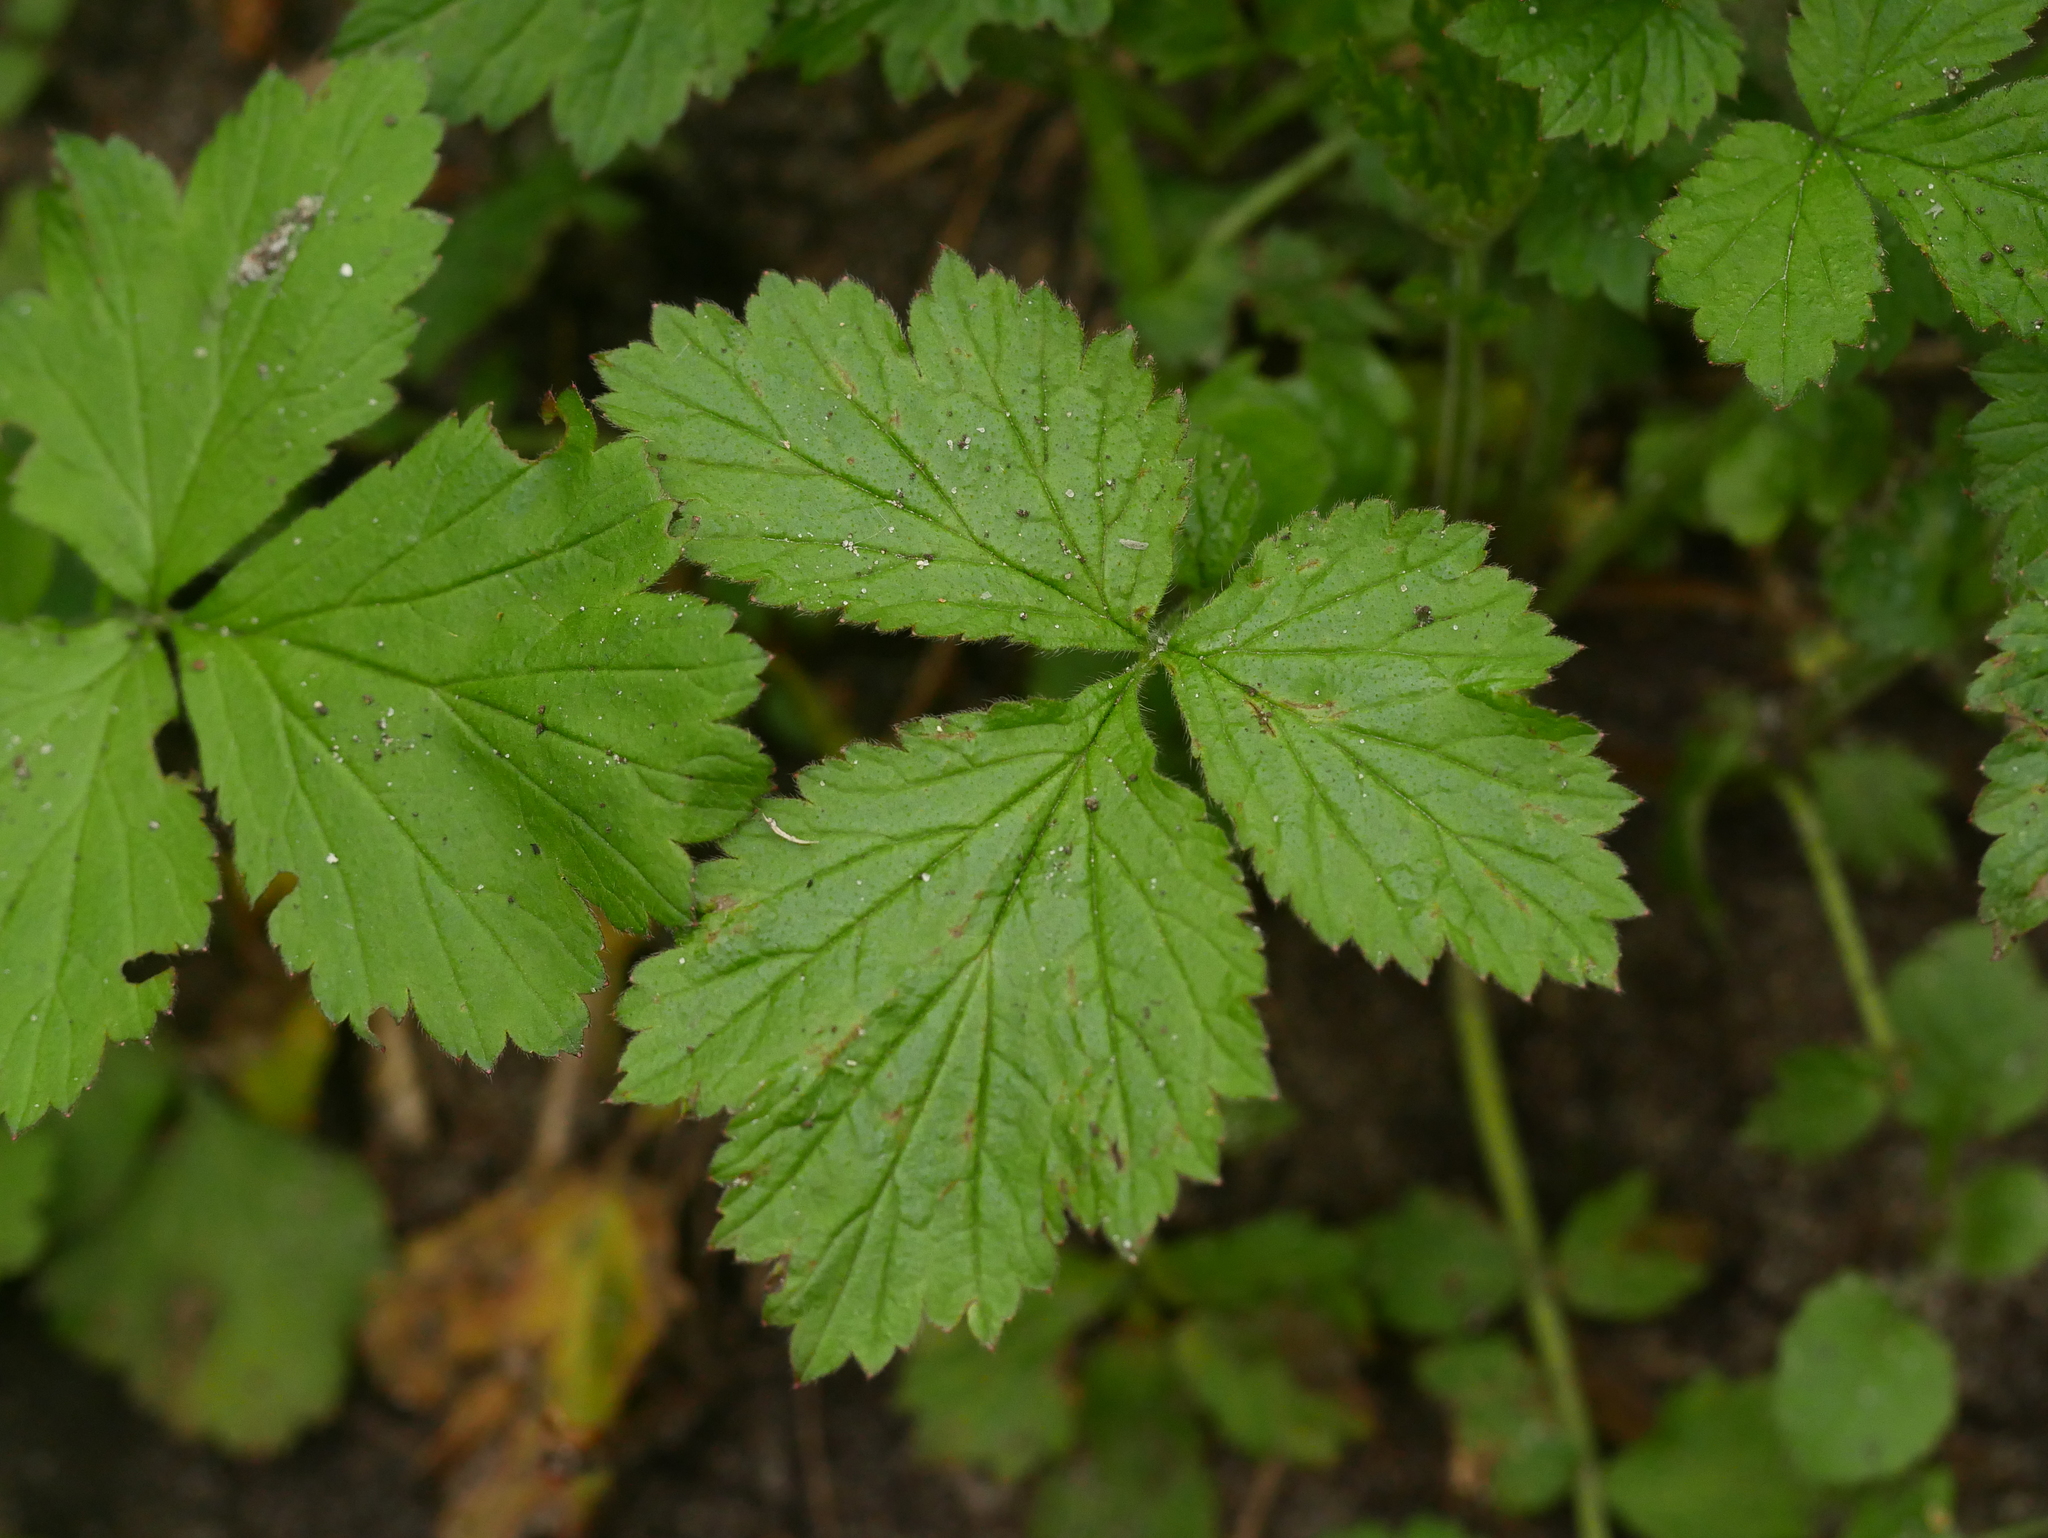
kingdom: Plantae
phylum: Tracheophyta
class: Magnoliopsida
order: Rosales
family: Rosaceae
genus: Geum
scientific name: Geum urbanum
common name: Wood avens
